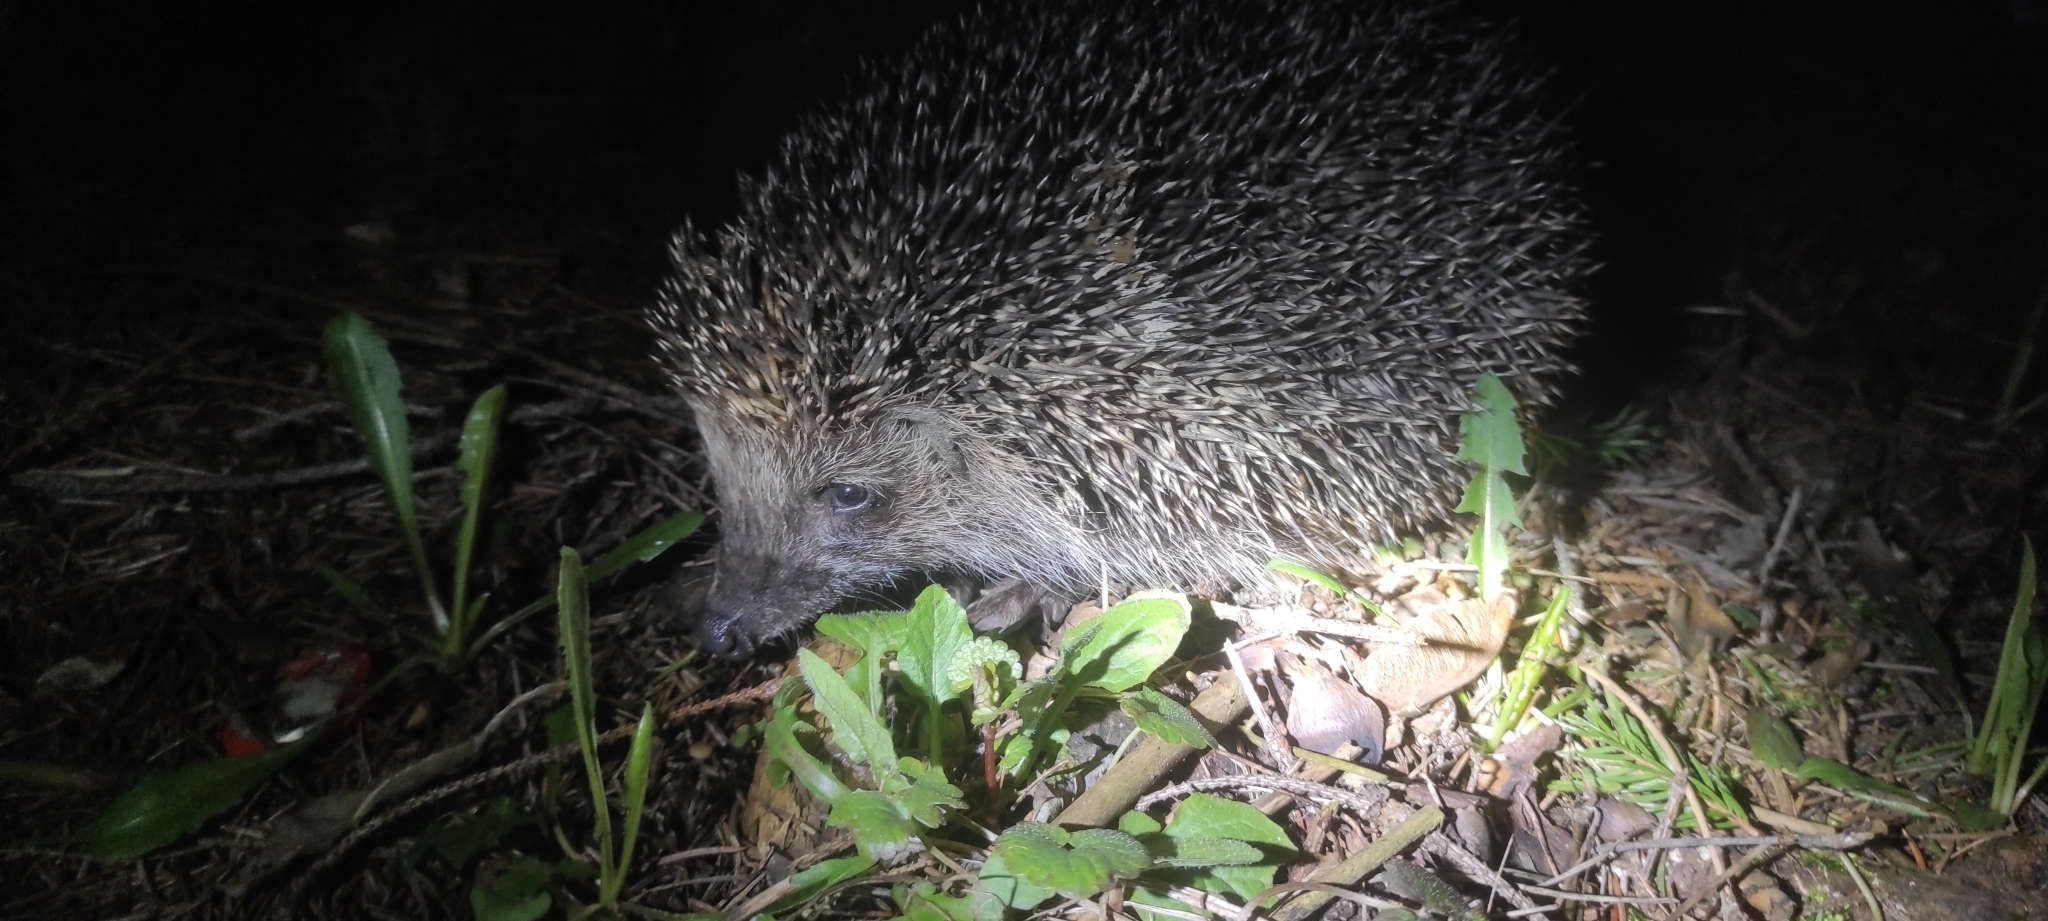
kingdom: Animalia
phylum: Chordata
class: Mammalia
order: Erinaceomorpha
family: Erinaceidae
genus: Erinaceus
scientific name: Erinaceus roumanicus
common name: Northern white-breasted hedgehog
